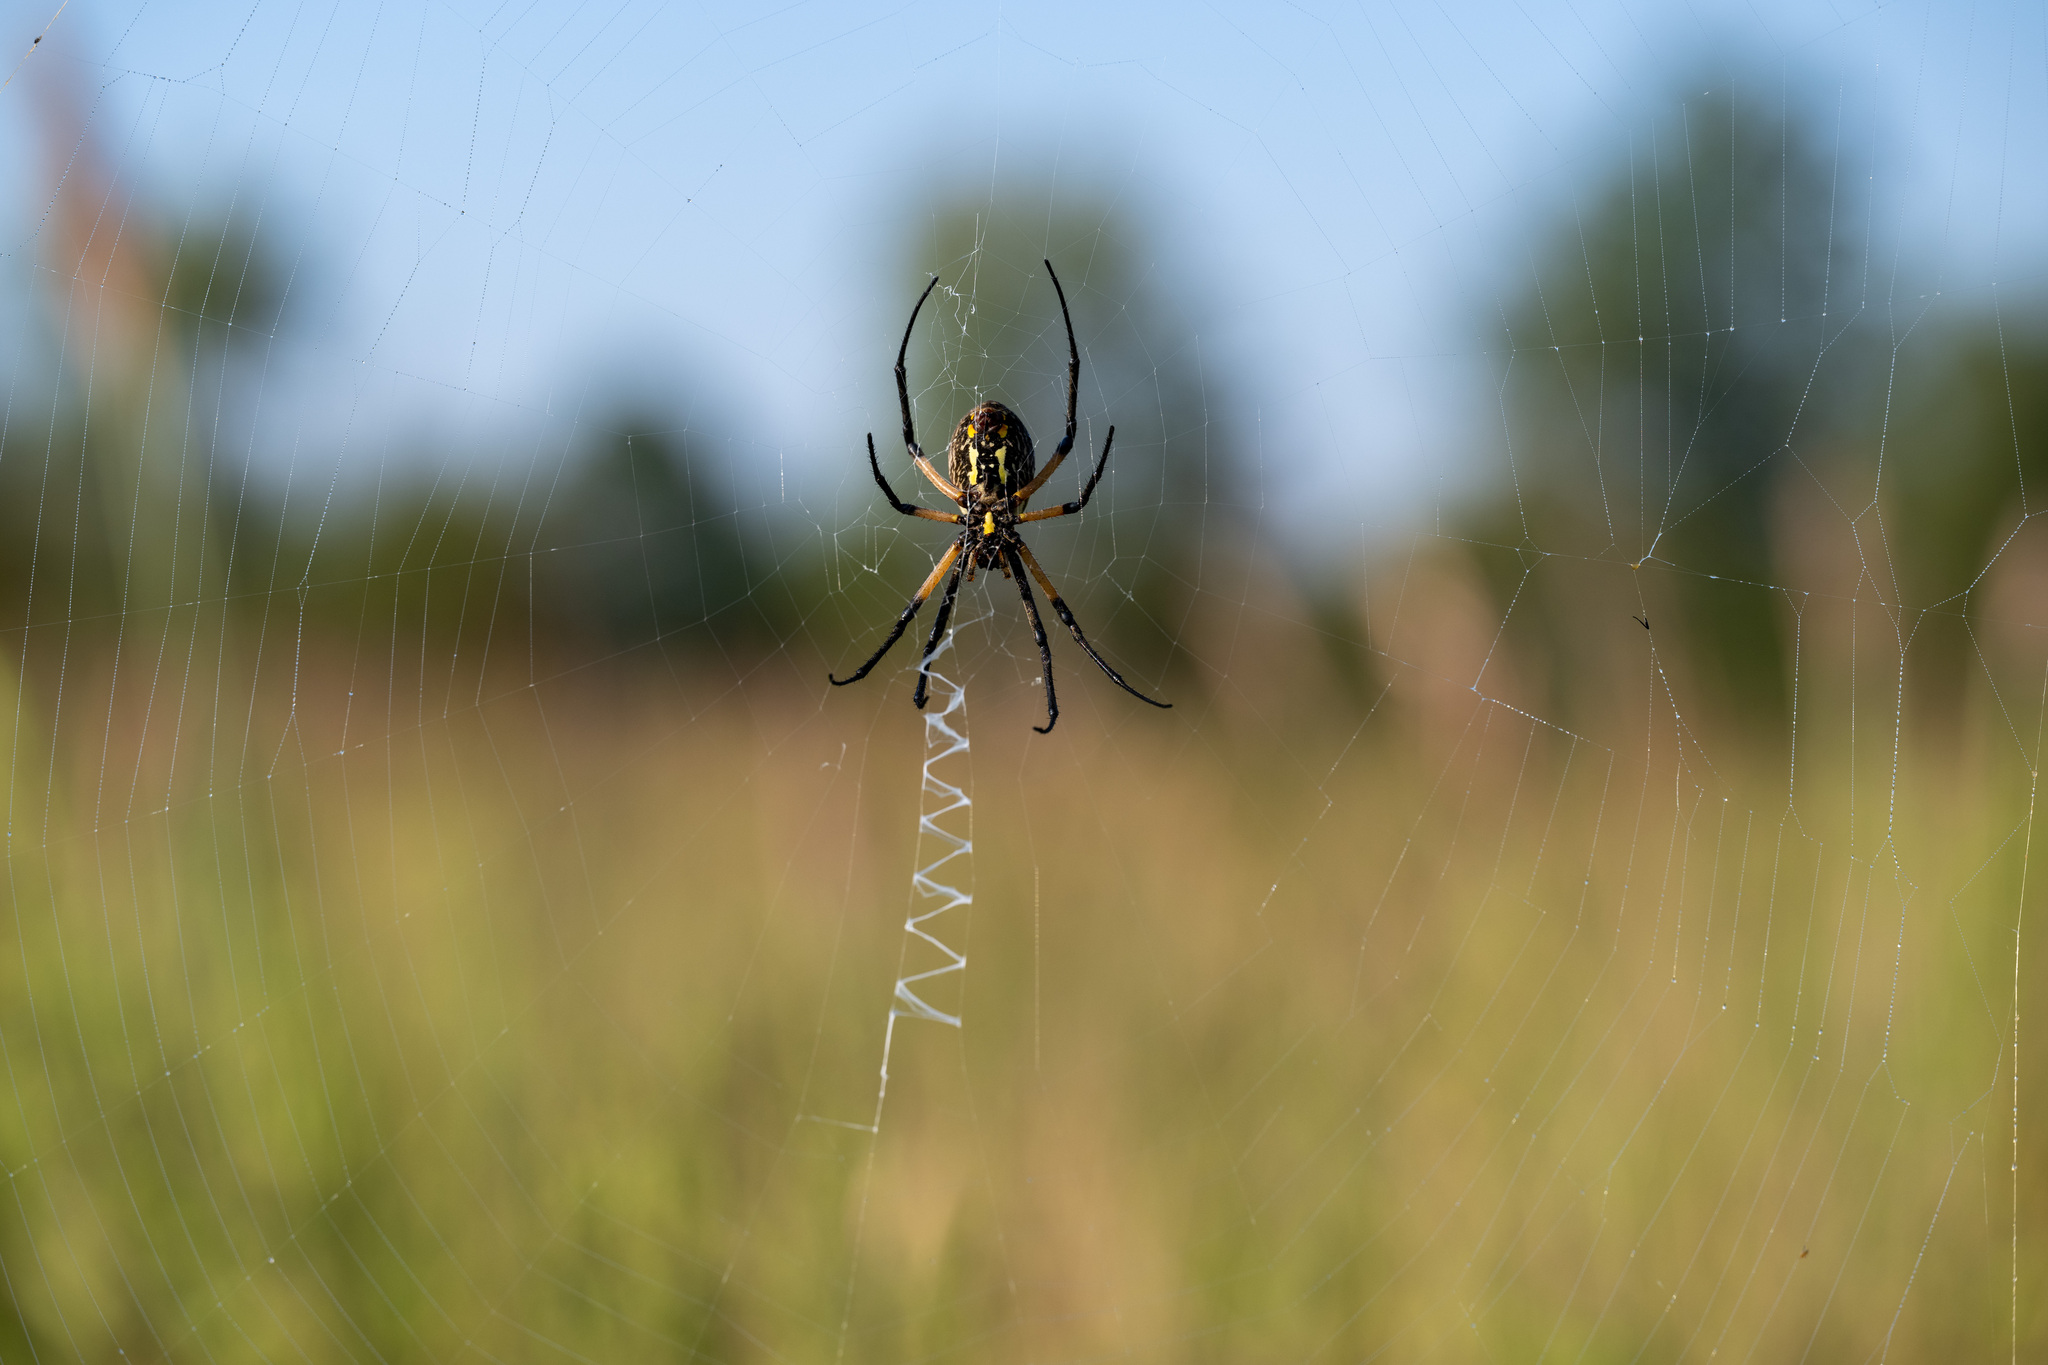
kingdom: Animalia
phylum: Arthropoda
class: Arachnida
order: Araneae
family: Araneidae
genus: Argiope
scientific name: Argiope aurantia
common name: Orb weavers
